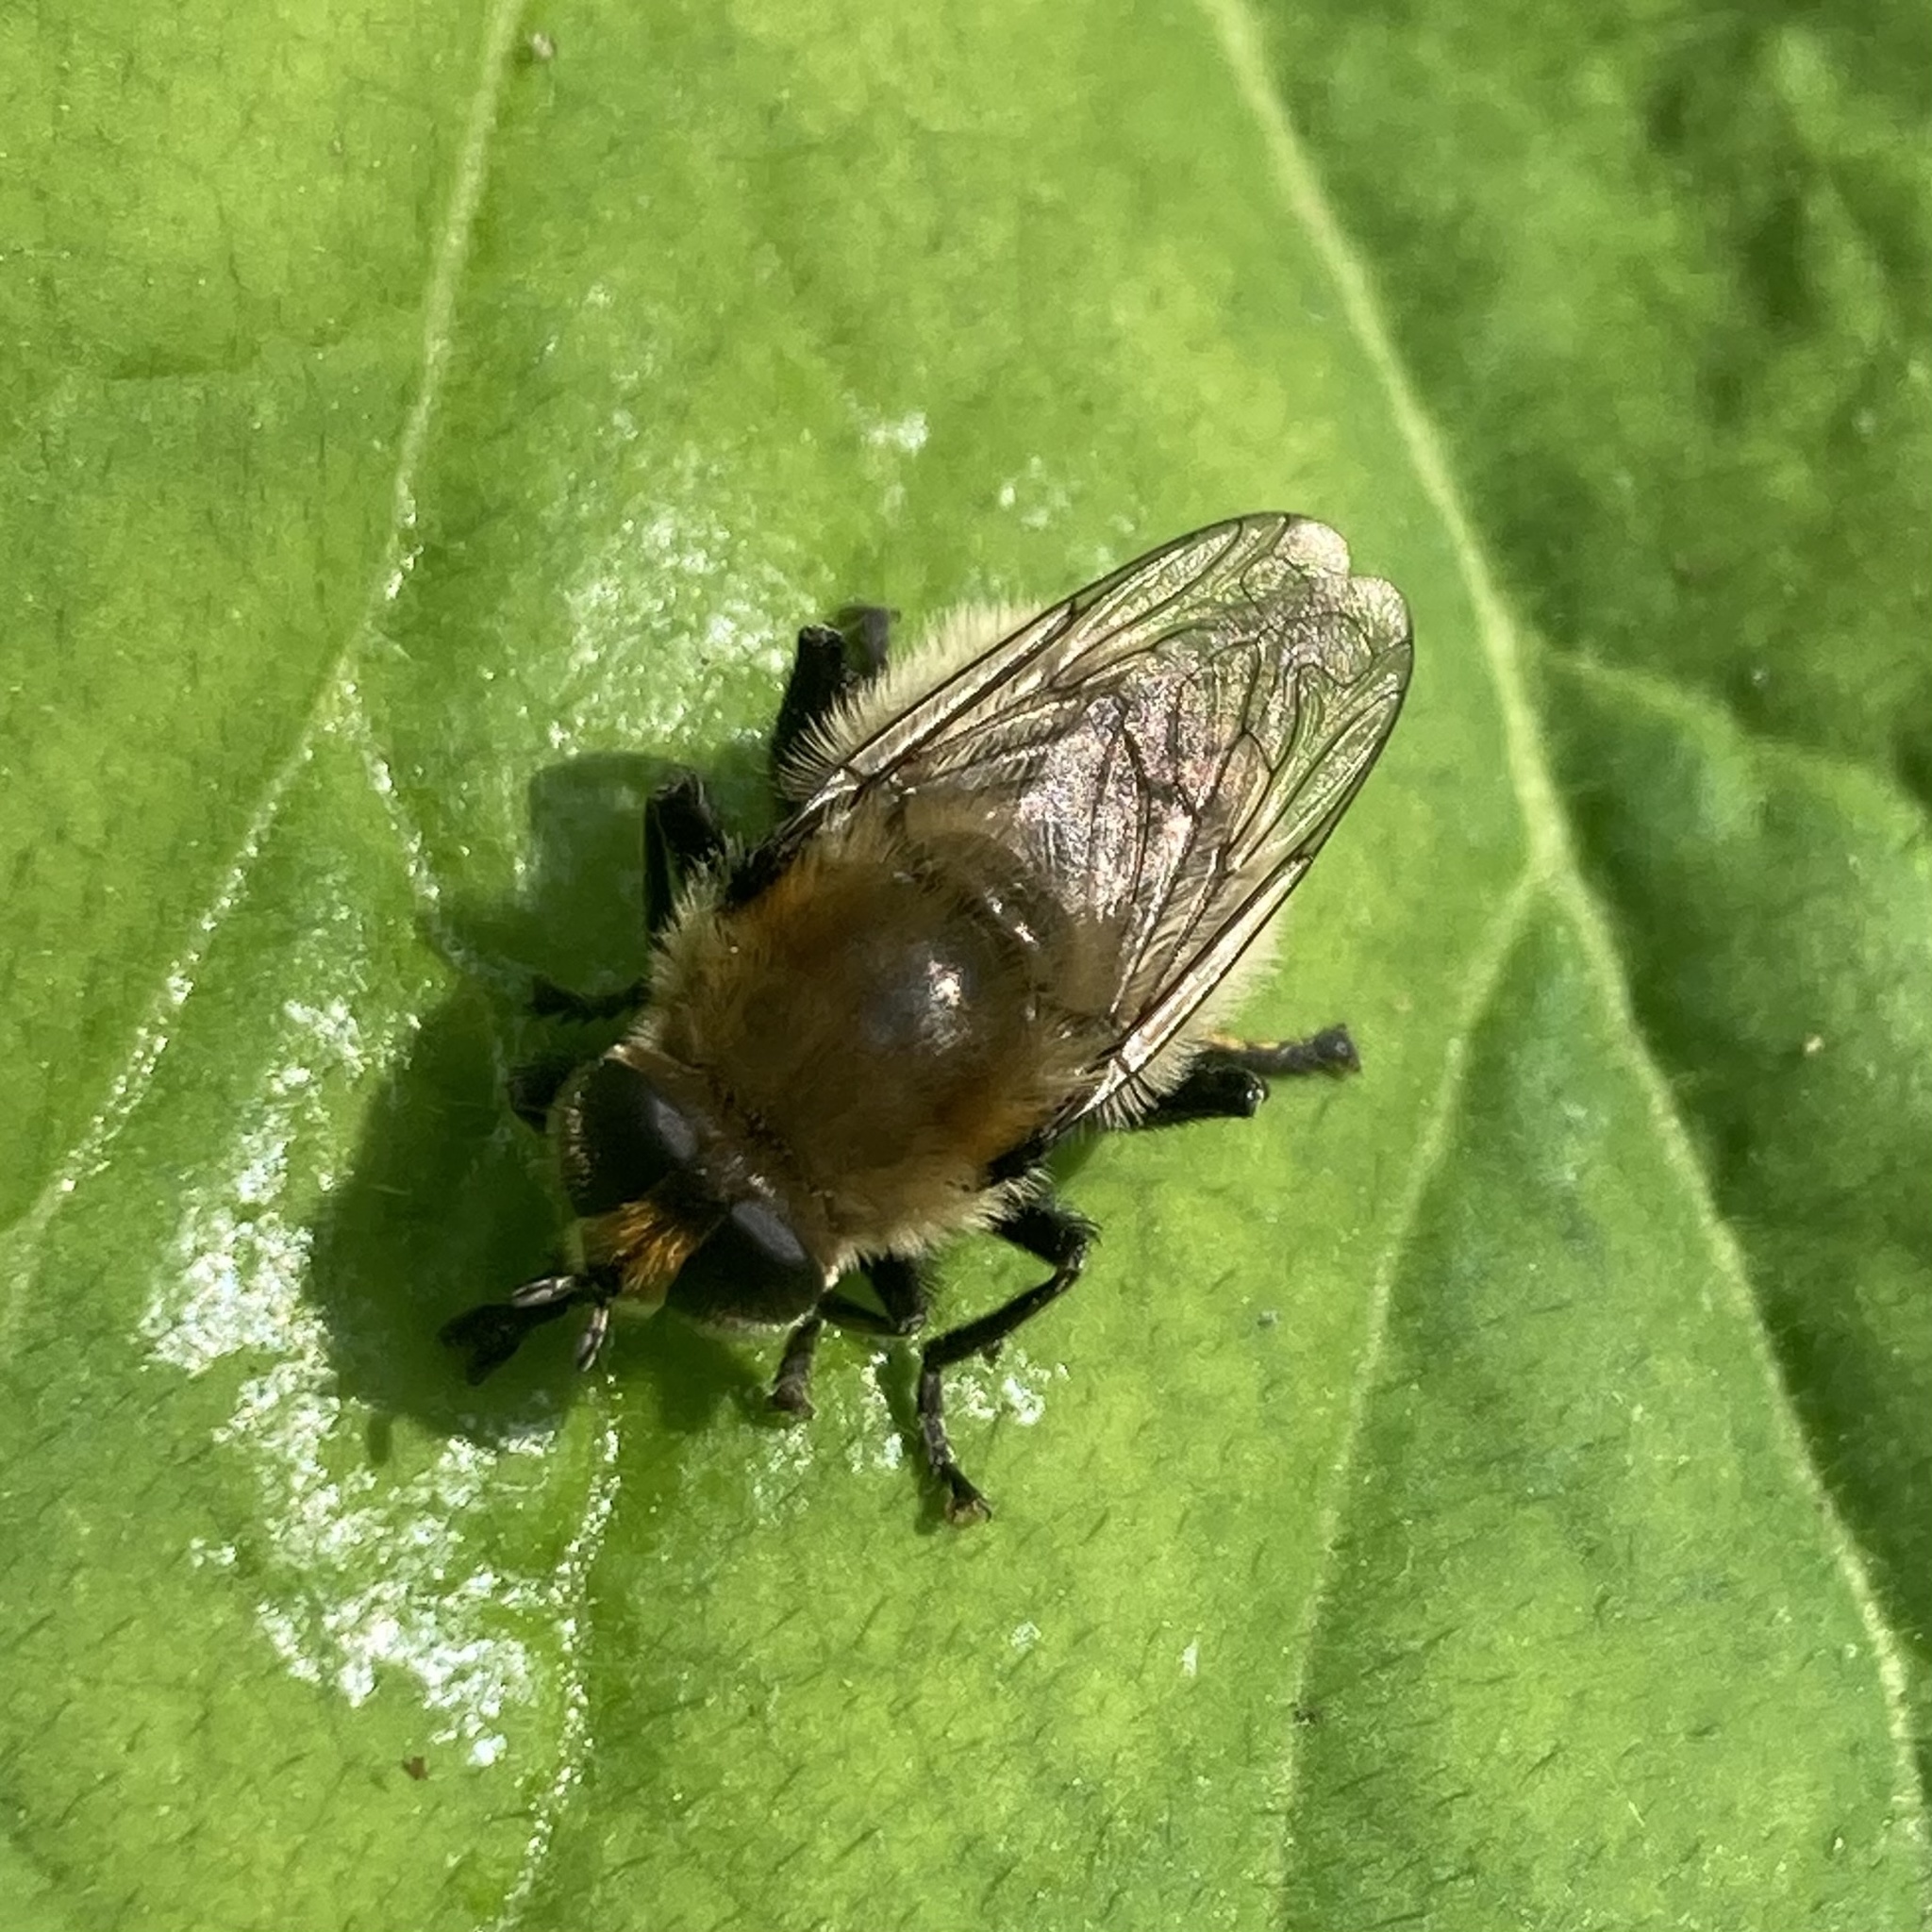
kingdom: Animalia
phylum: Arthropoda
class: Insecta
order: Diptera
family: Syrphidae
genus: Merodon
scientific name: Merodon equestris
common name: Greater bulb-fly
